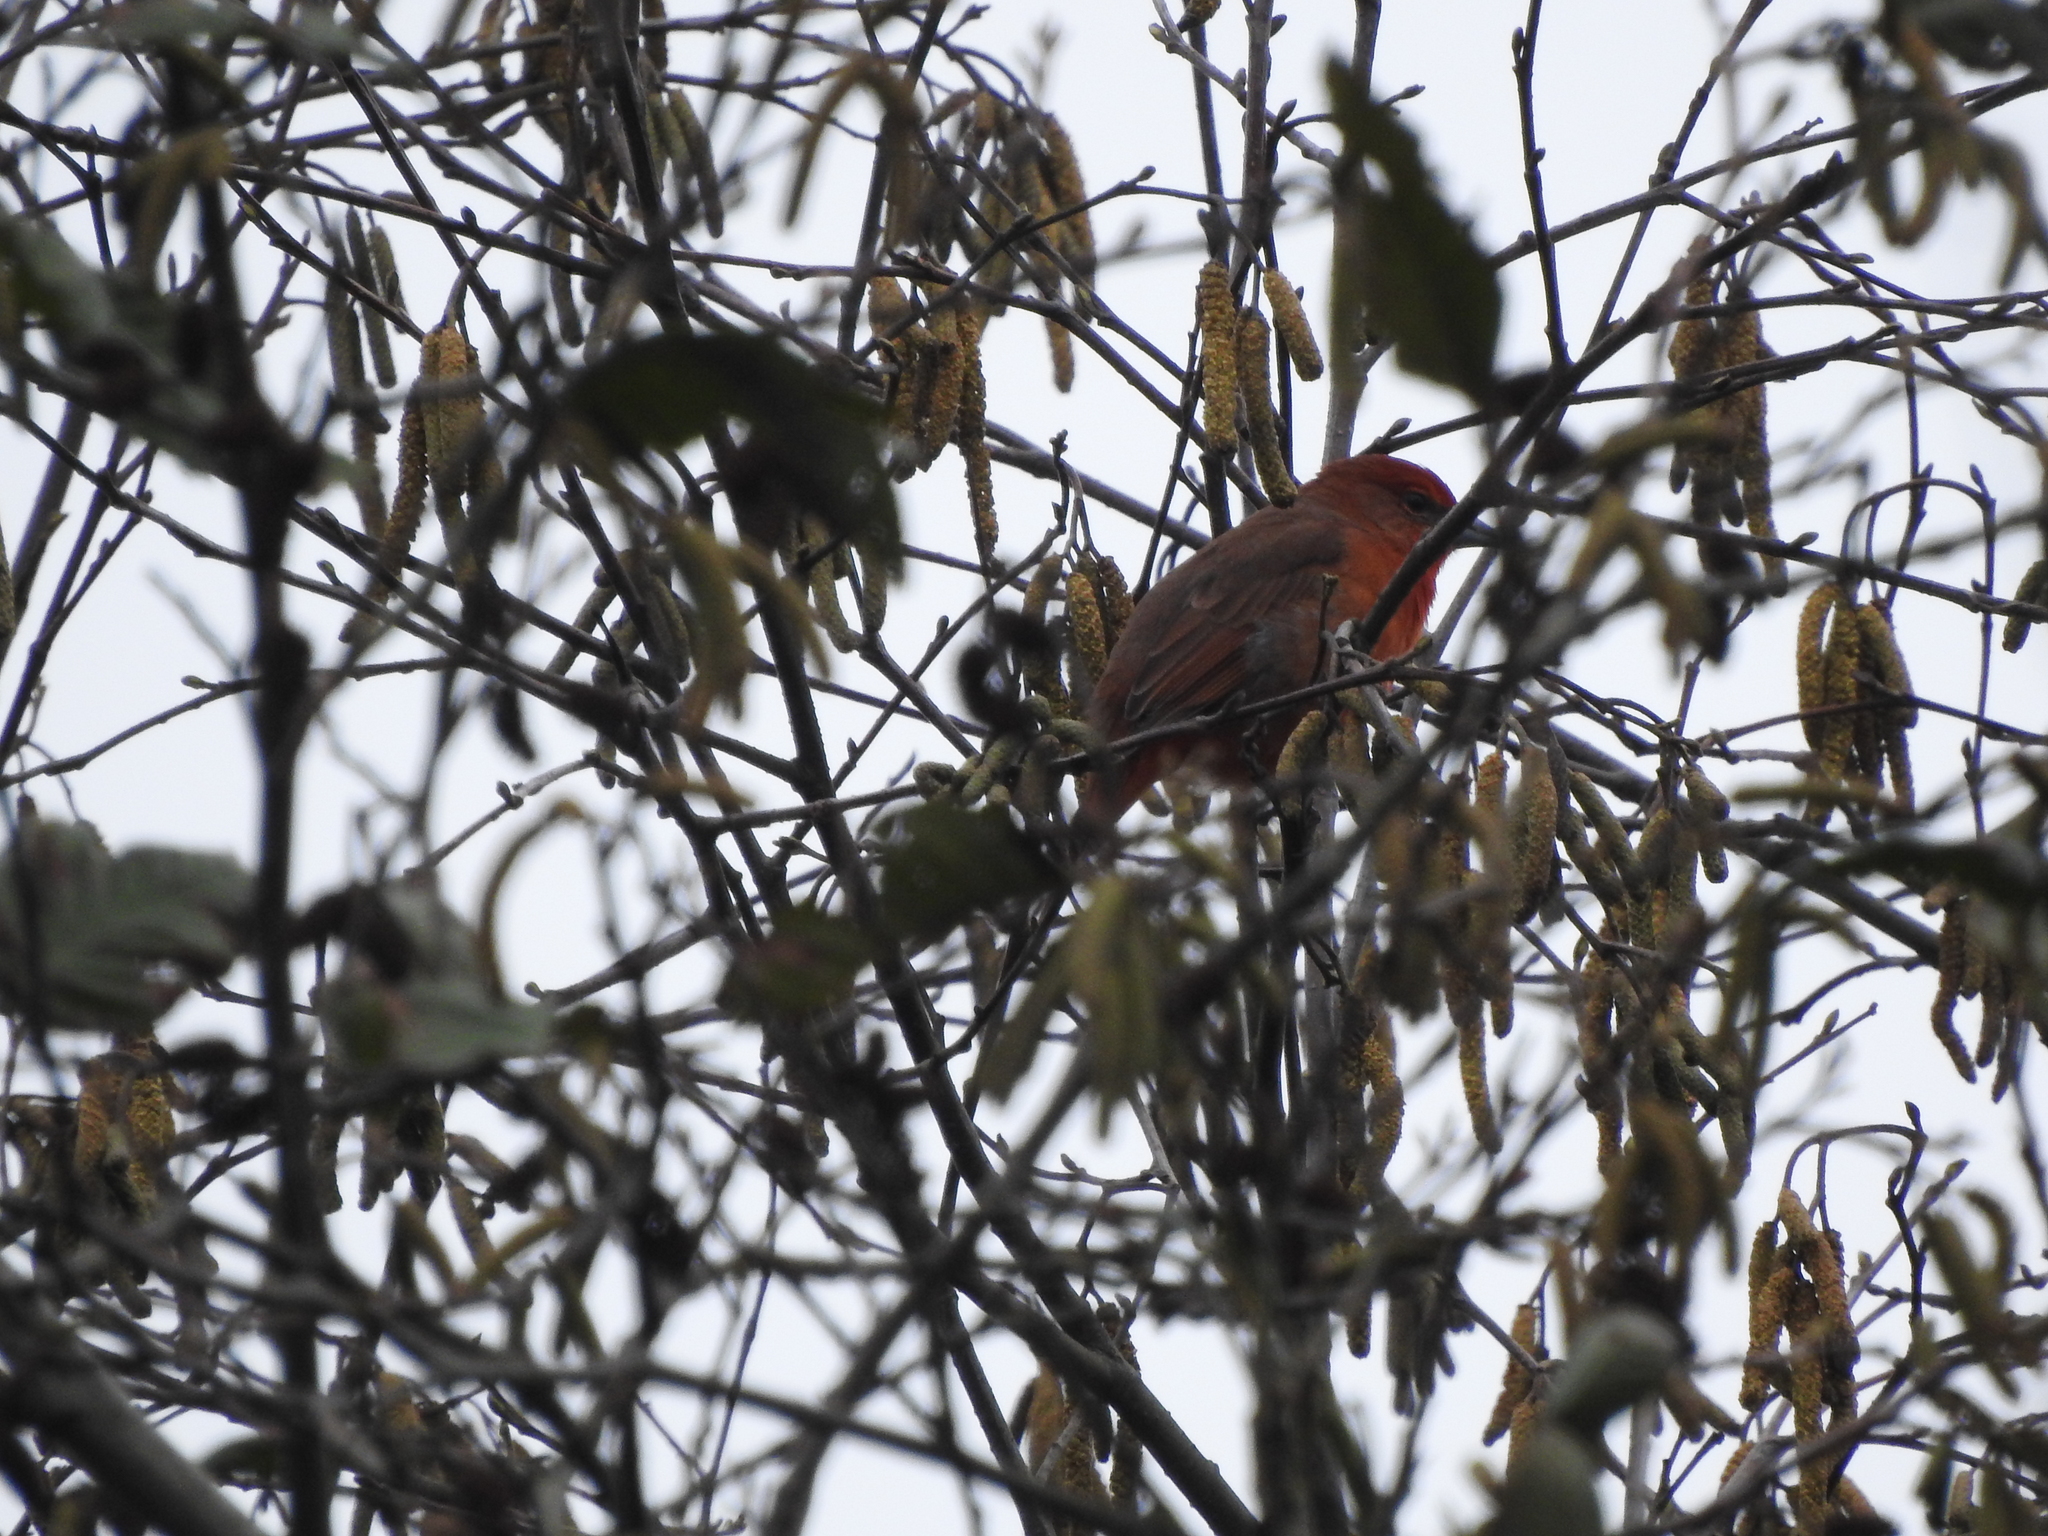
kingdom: Animalia
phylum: Chordata
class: Aves
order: Passeriformes
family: Cardinalidae
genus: Piranga
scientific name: Piranga flava
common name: Red tanager
